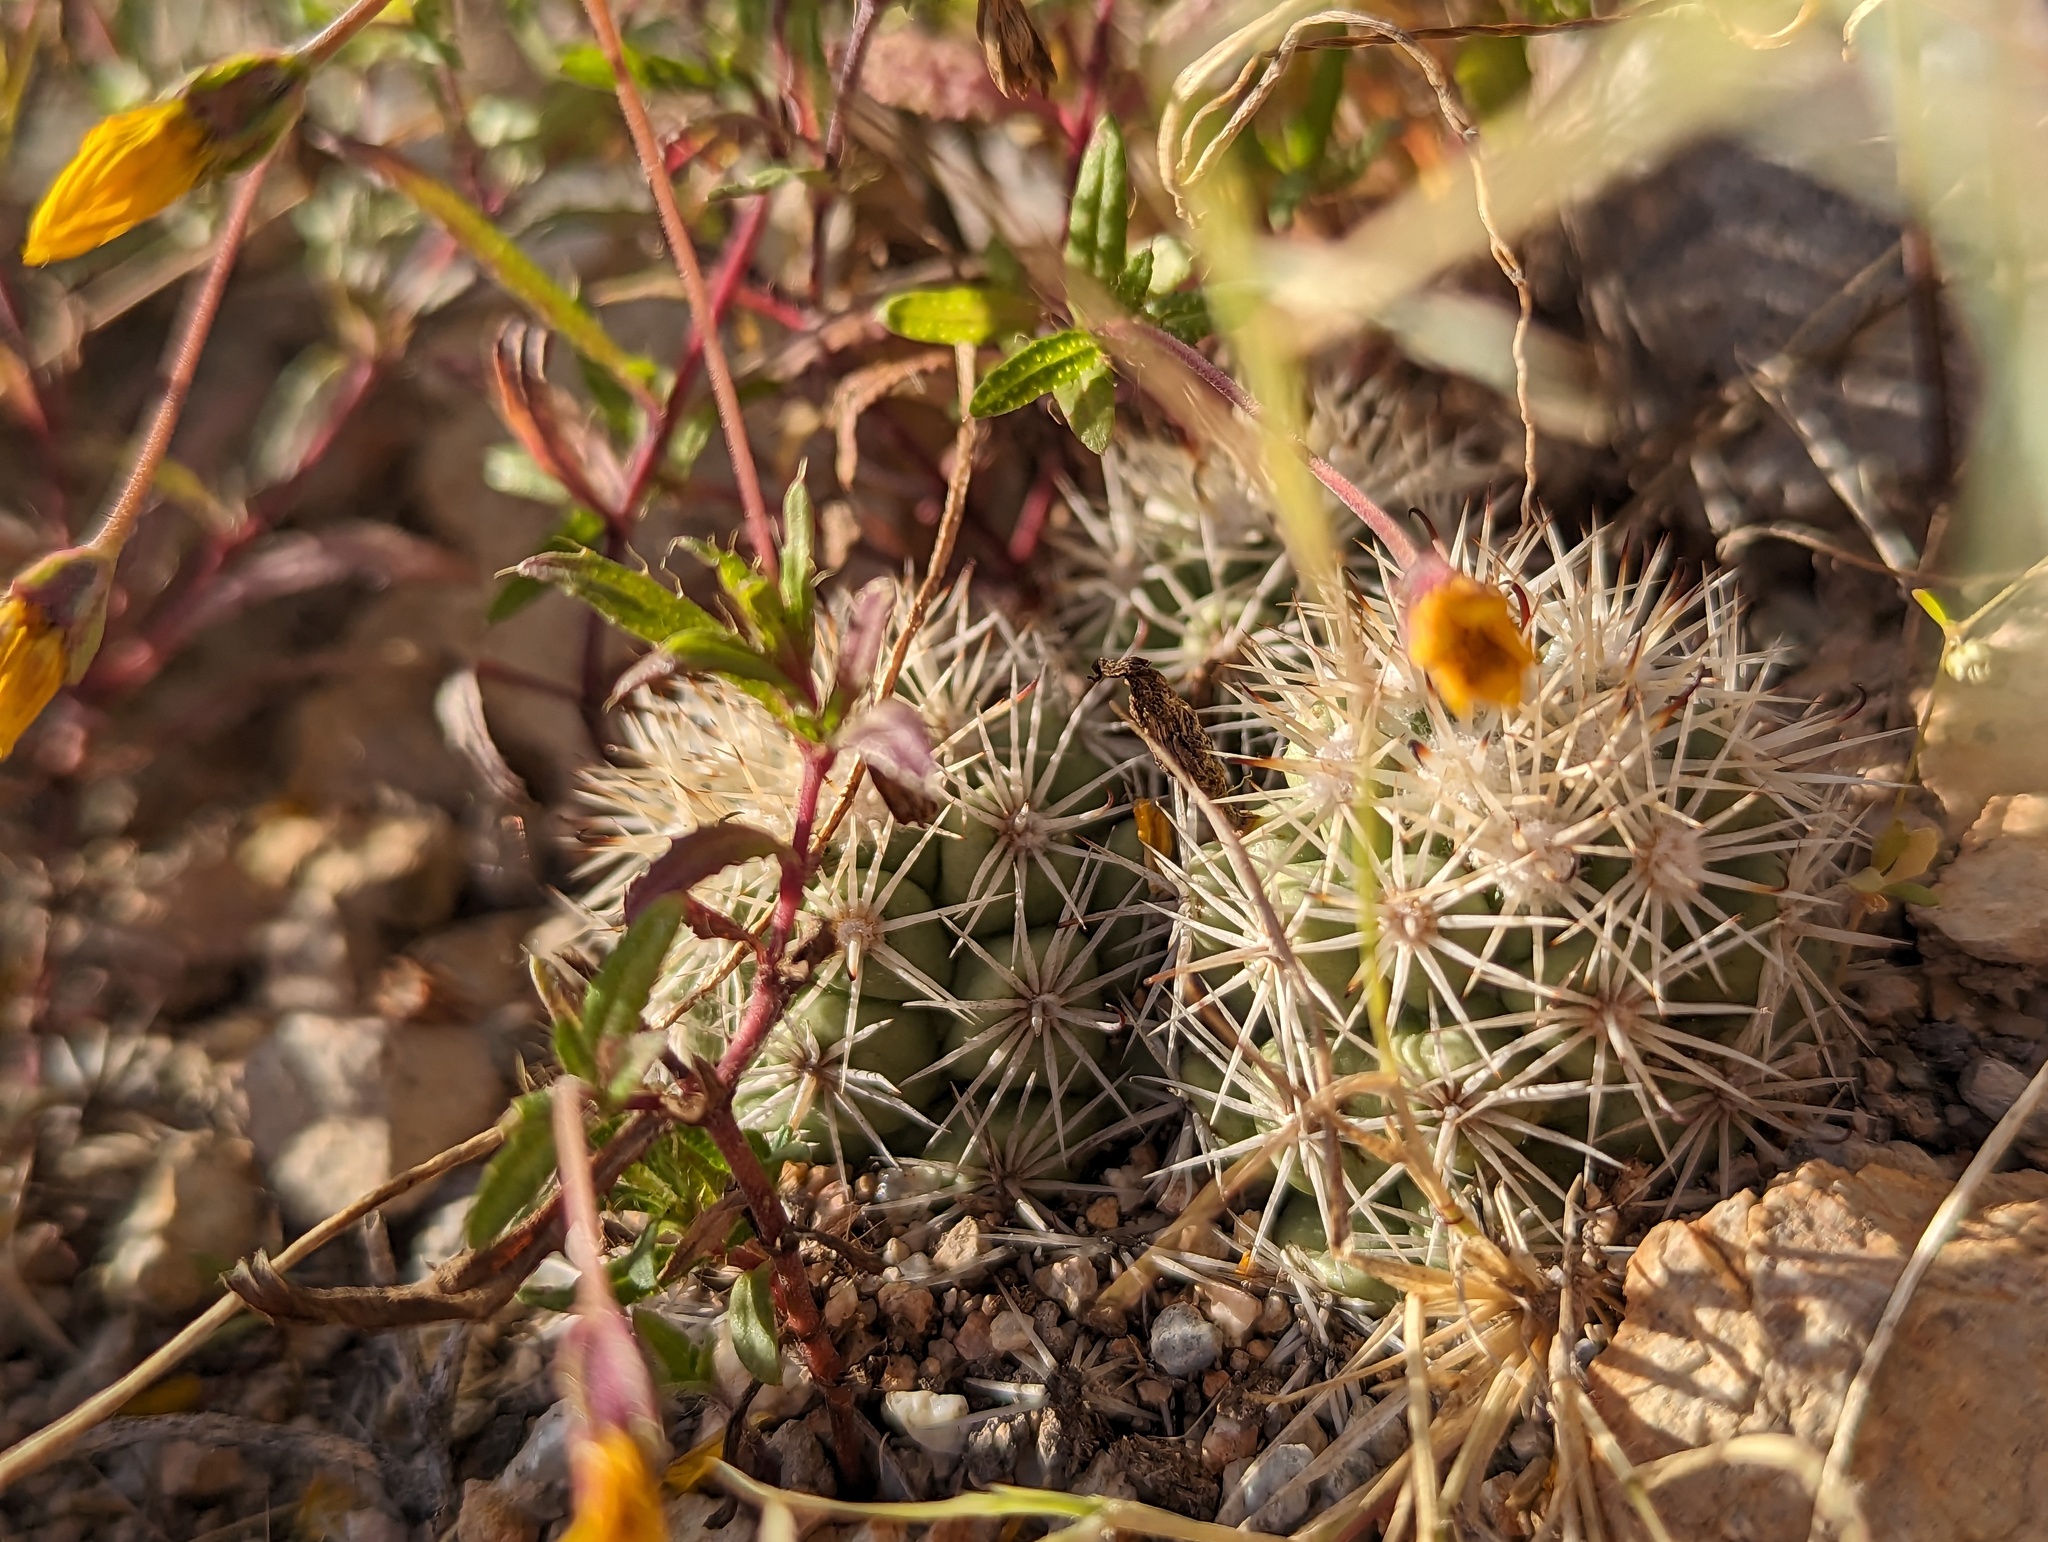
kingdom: Plantae
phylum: Tracheophyta
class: Magnoliopsida
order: Caryophyllales
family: Cactaceae
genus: Cochemiea
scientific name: Cochemiea schumannii
